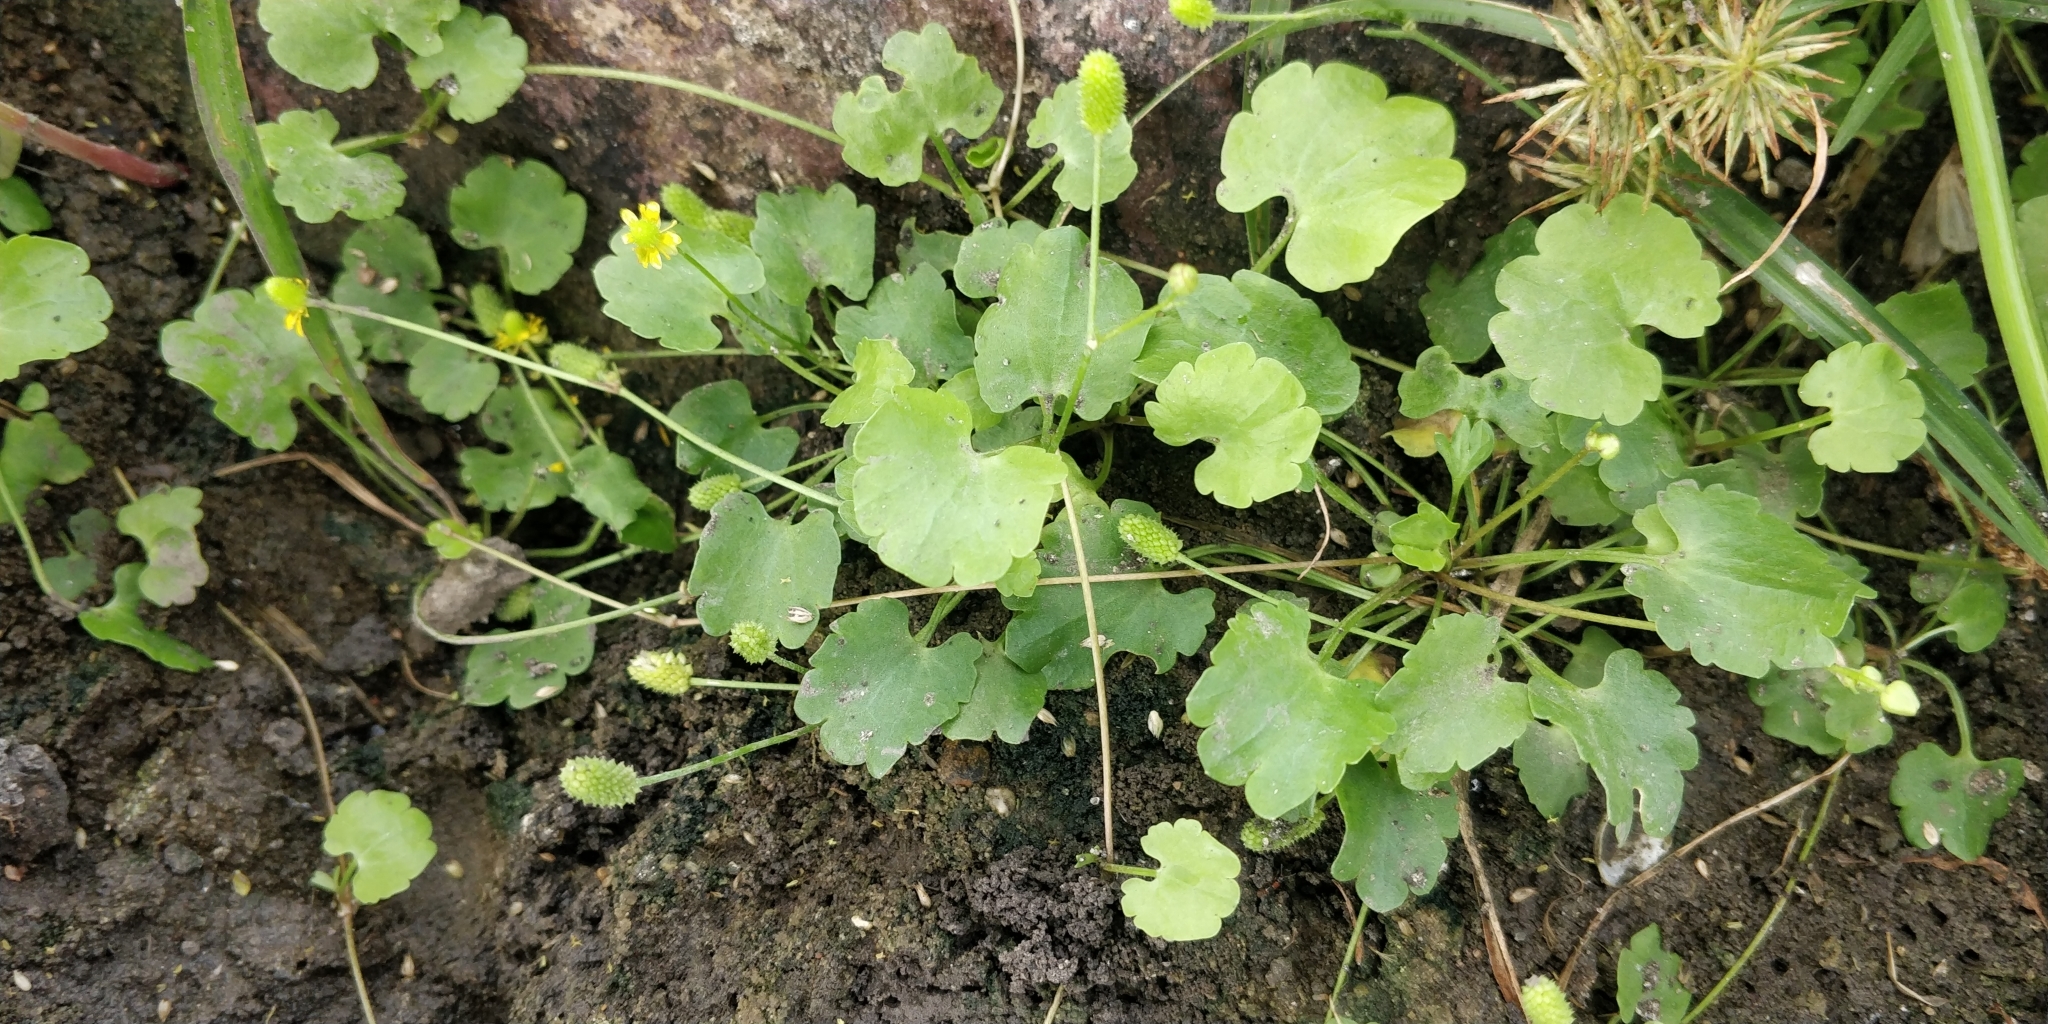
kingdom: Plantae
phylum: Tracheophyta
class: Magnoliopsida
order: Ranunculales
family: Ranunculaceae
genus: Halerpestes
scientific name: Halerpestes cymbalaria
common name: Seaside crowfoot
